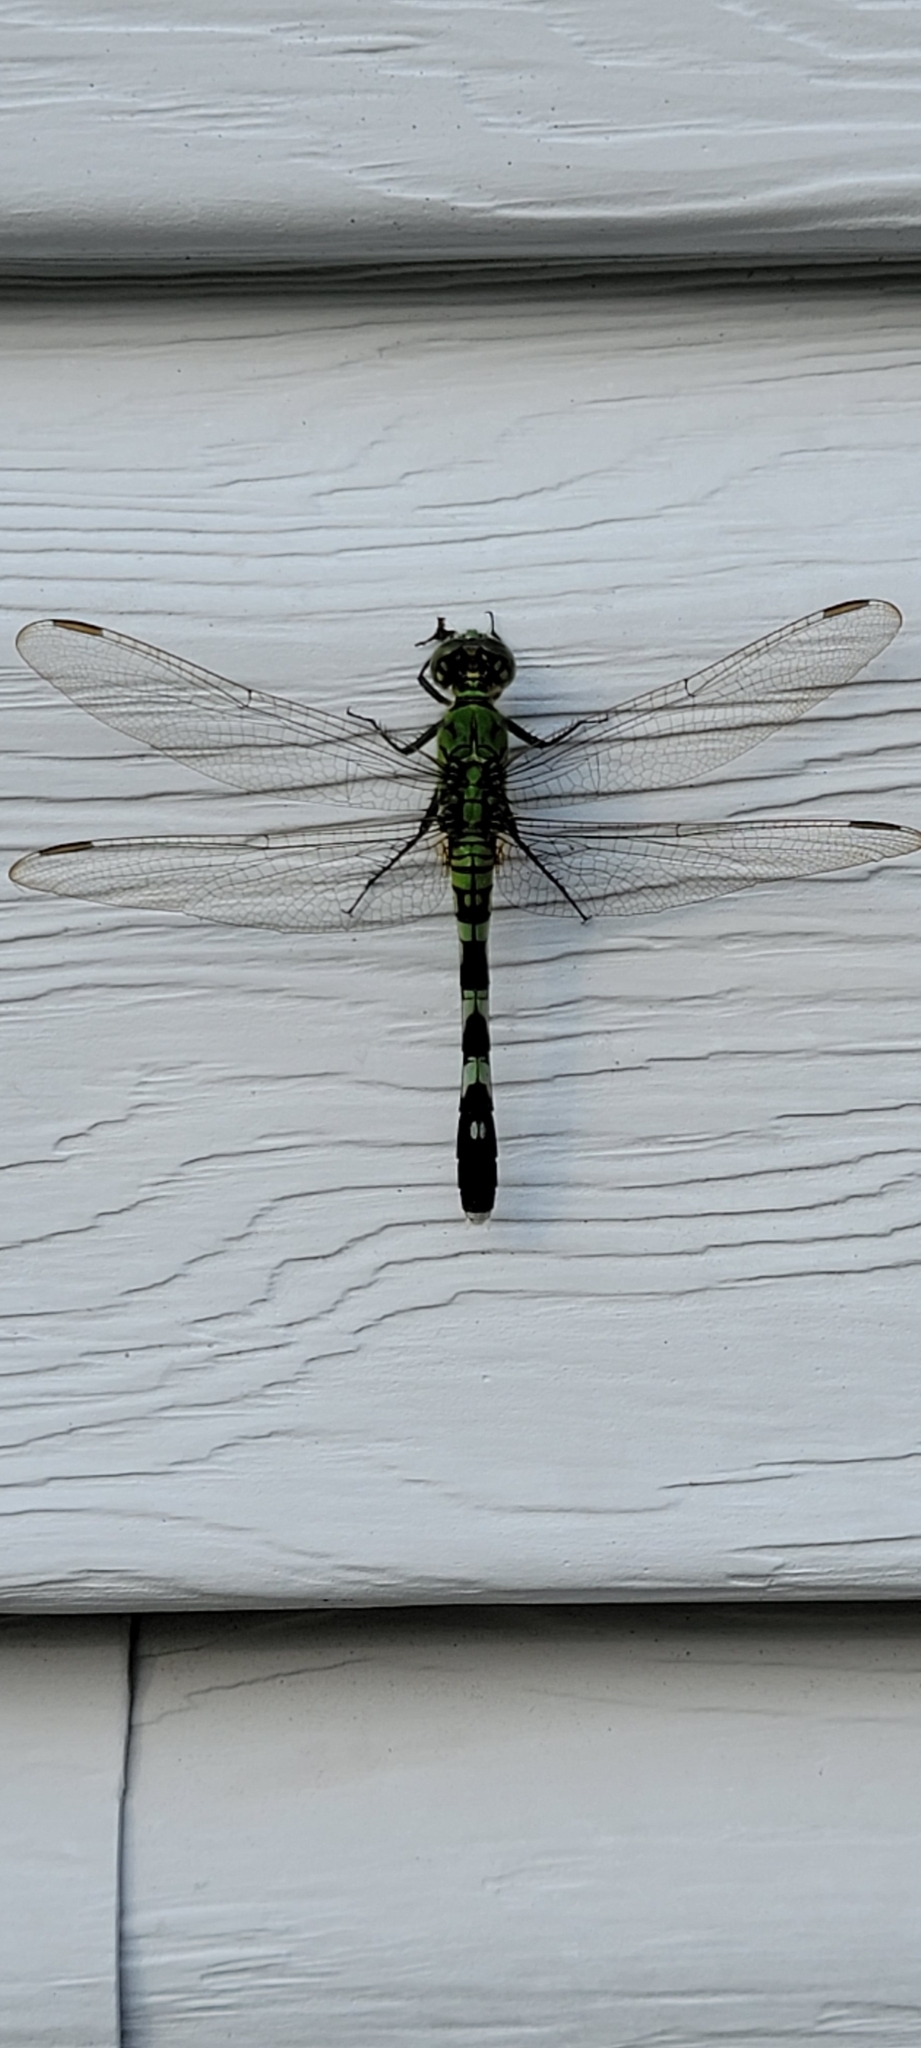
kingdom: Animalia
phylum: Arthropoda
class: Insecta
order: Odonata
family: Libellulidae
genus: Erythemis
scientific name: Erythemis simplicicollis
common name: Eastern pondhawk
